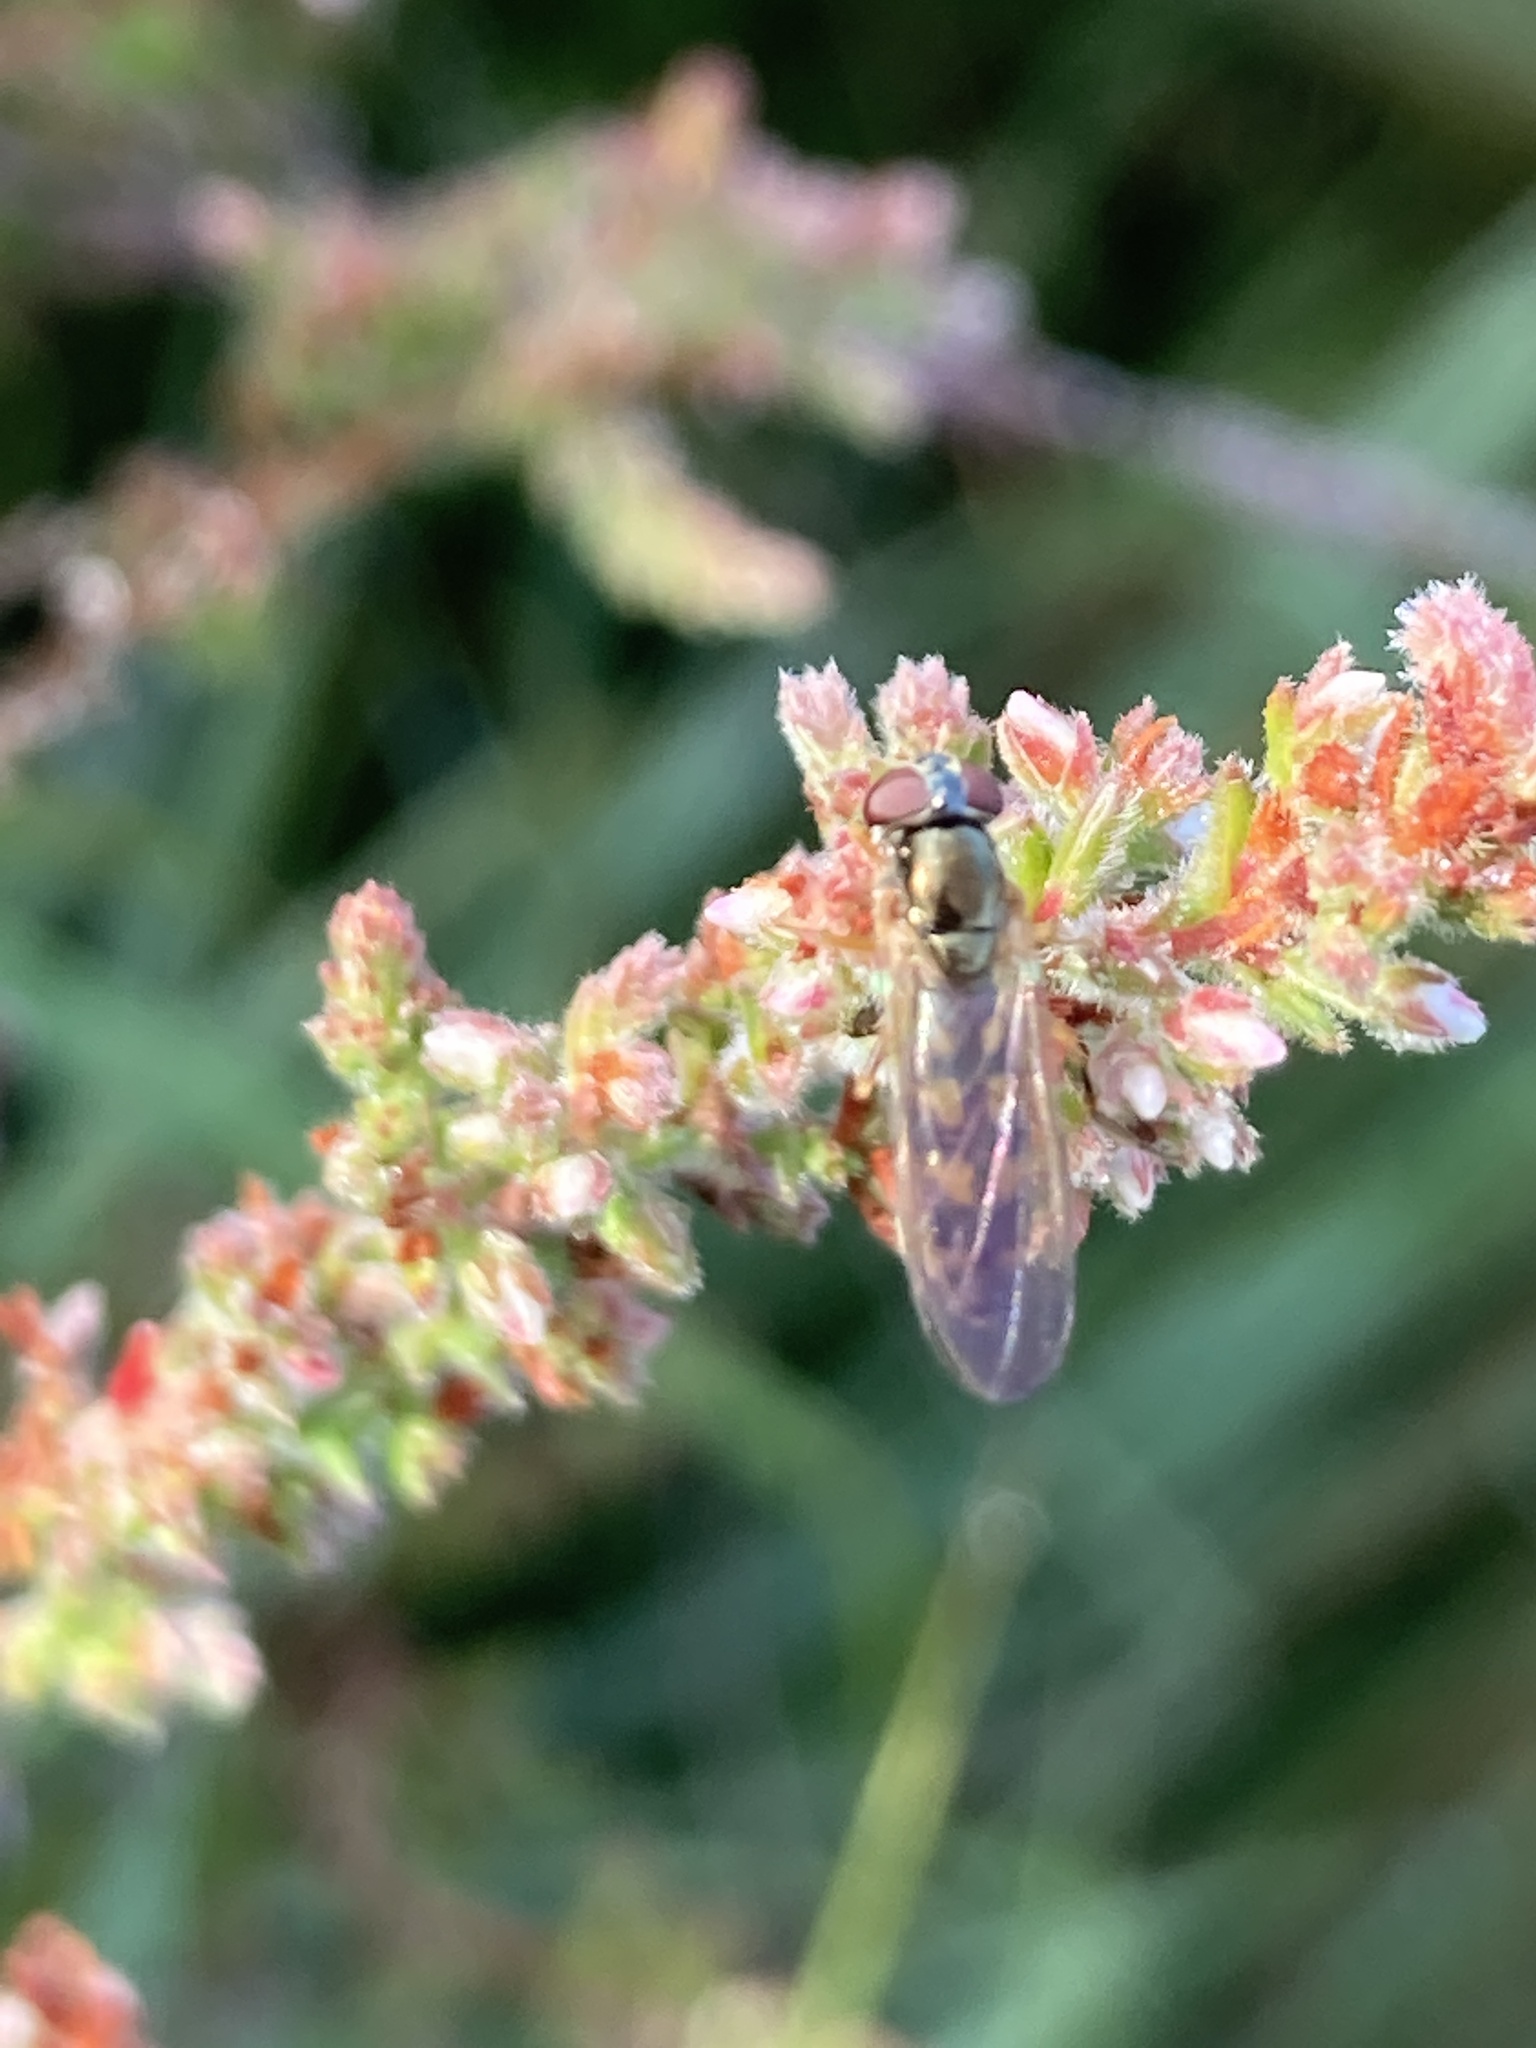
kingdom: Animalia
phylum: Arthropoda
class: Insecta
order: Diptera
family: Syrphidae
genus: Melanostoma
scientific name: Melanostoma
